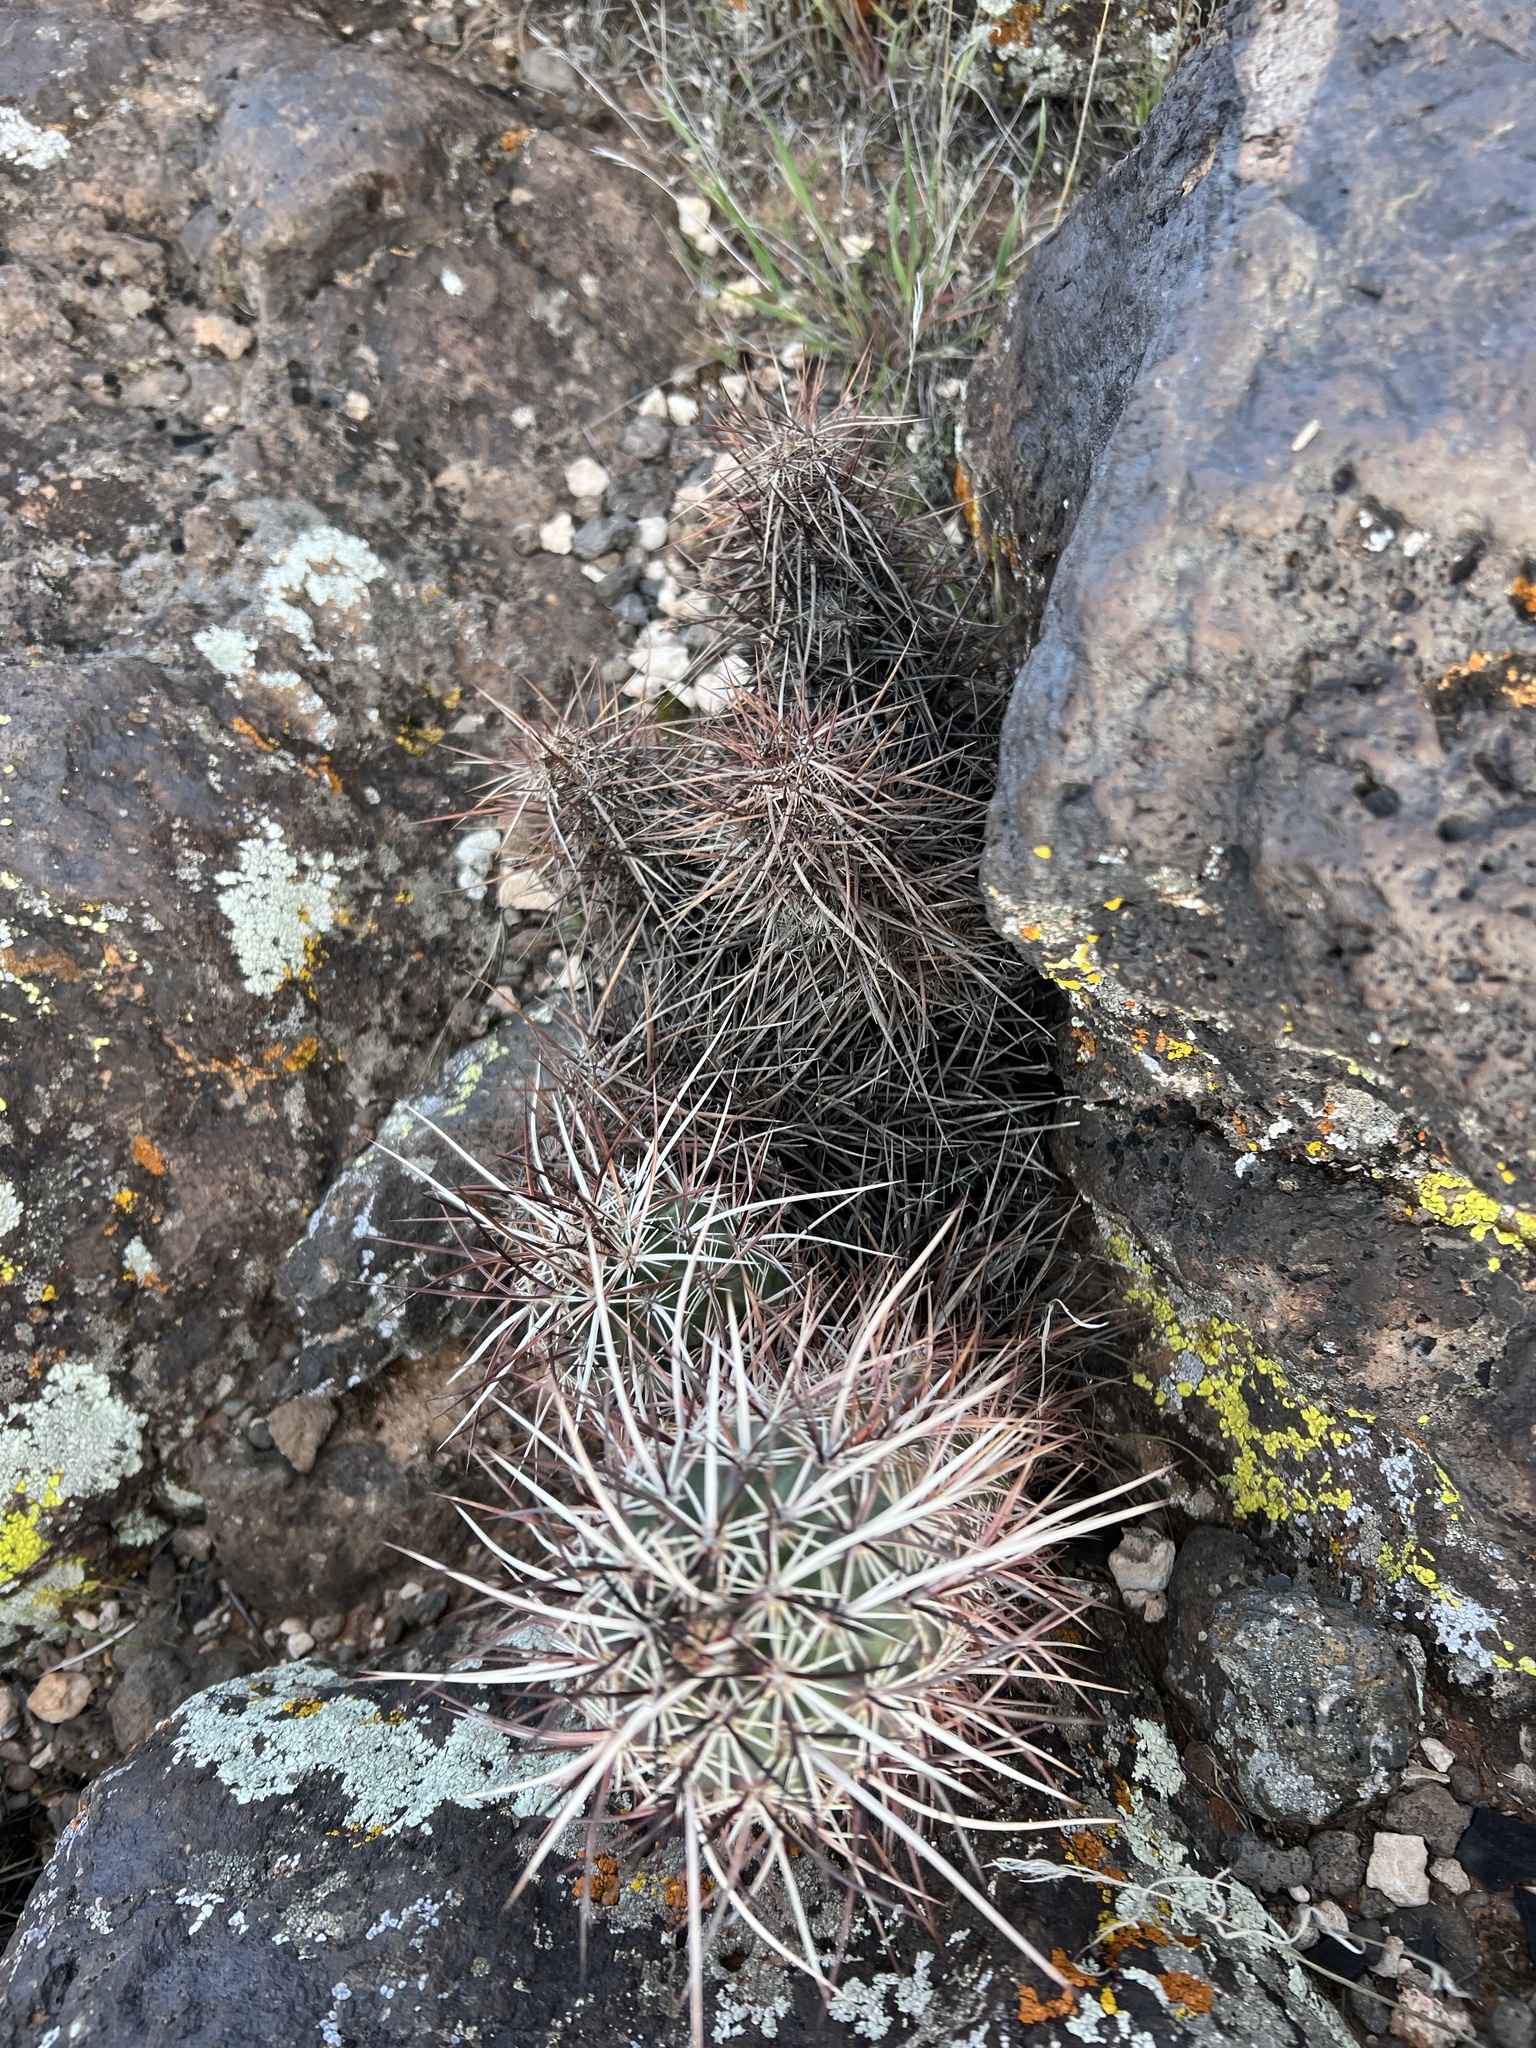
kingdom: Plantae
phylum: Tracheophyta
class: Magnoliopsida
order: Caryophyllales
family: Cactaceae
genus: Echinocereus
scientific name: Echinocereus relictus
